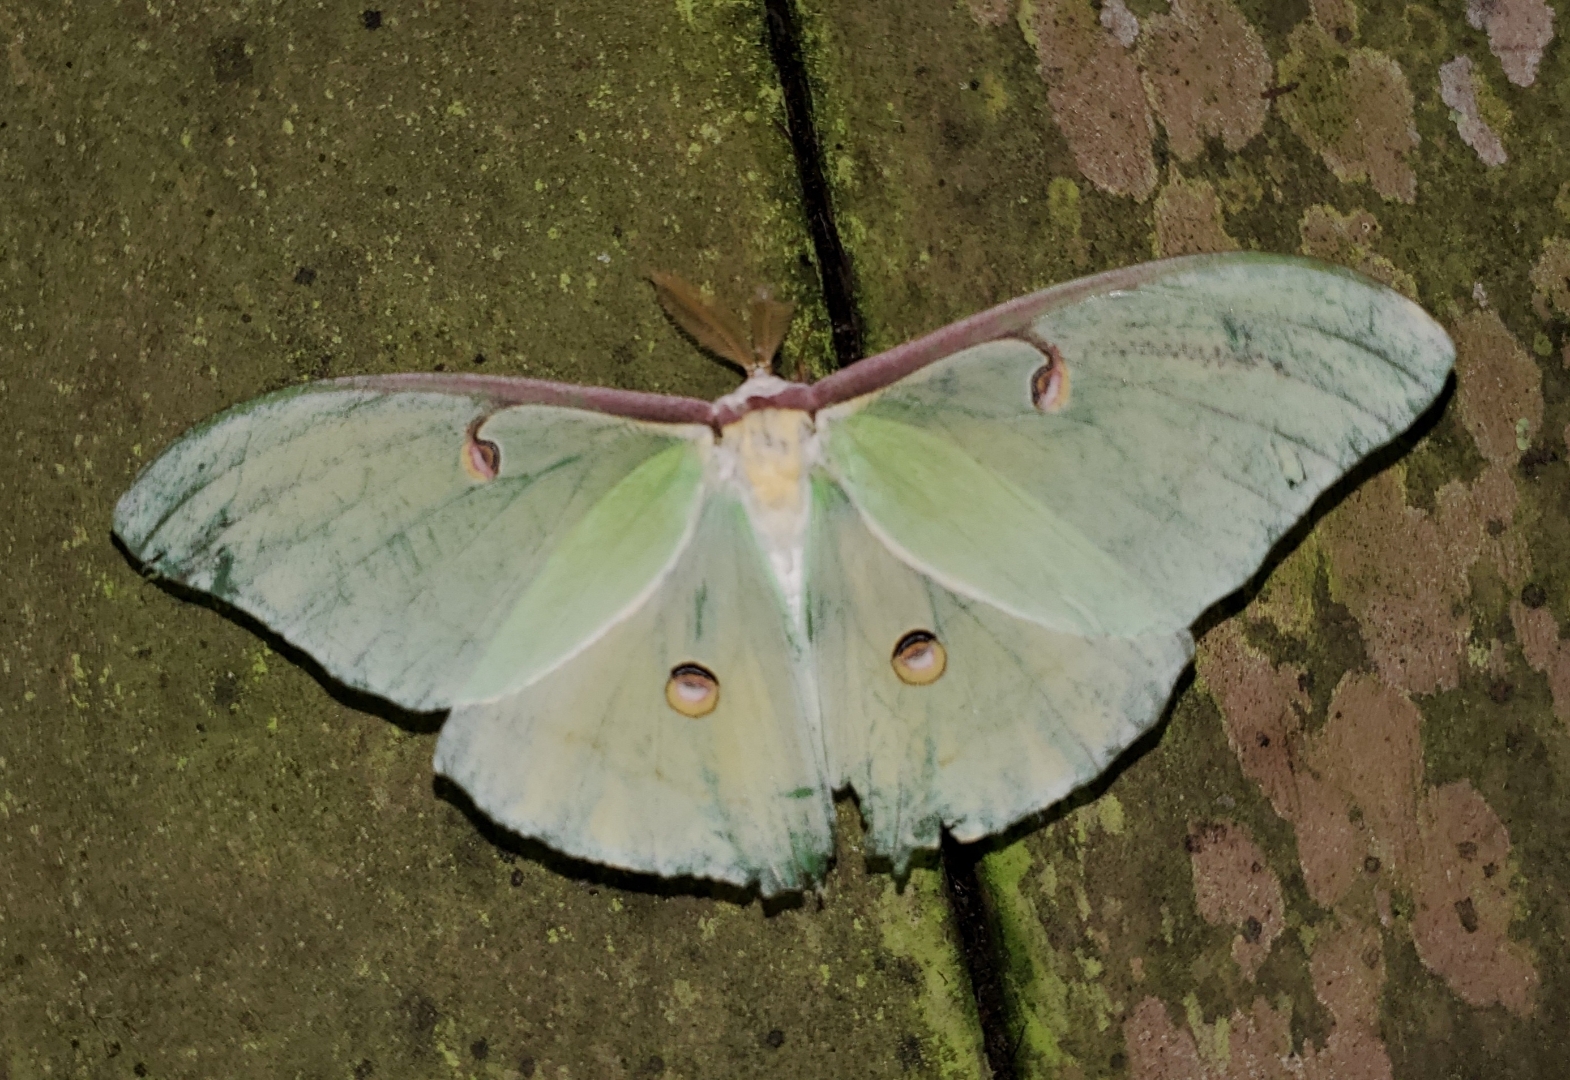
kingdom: Animalia
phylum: Arthropoda
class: Insecta
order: Lepidoptera
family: Saturniidae
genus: Actias
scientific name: Actias luna
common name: Luna moth
